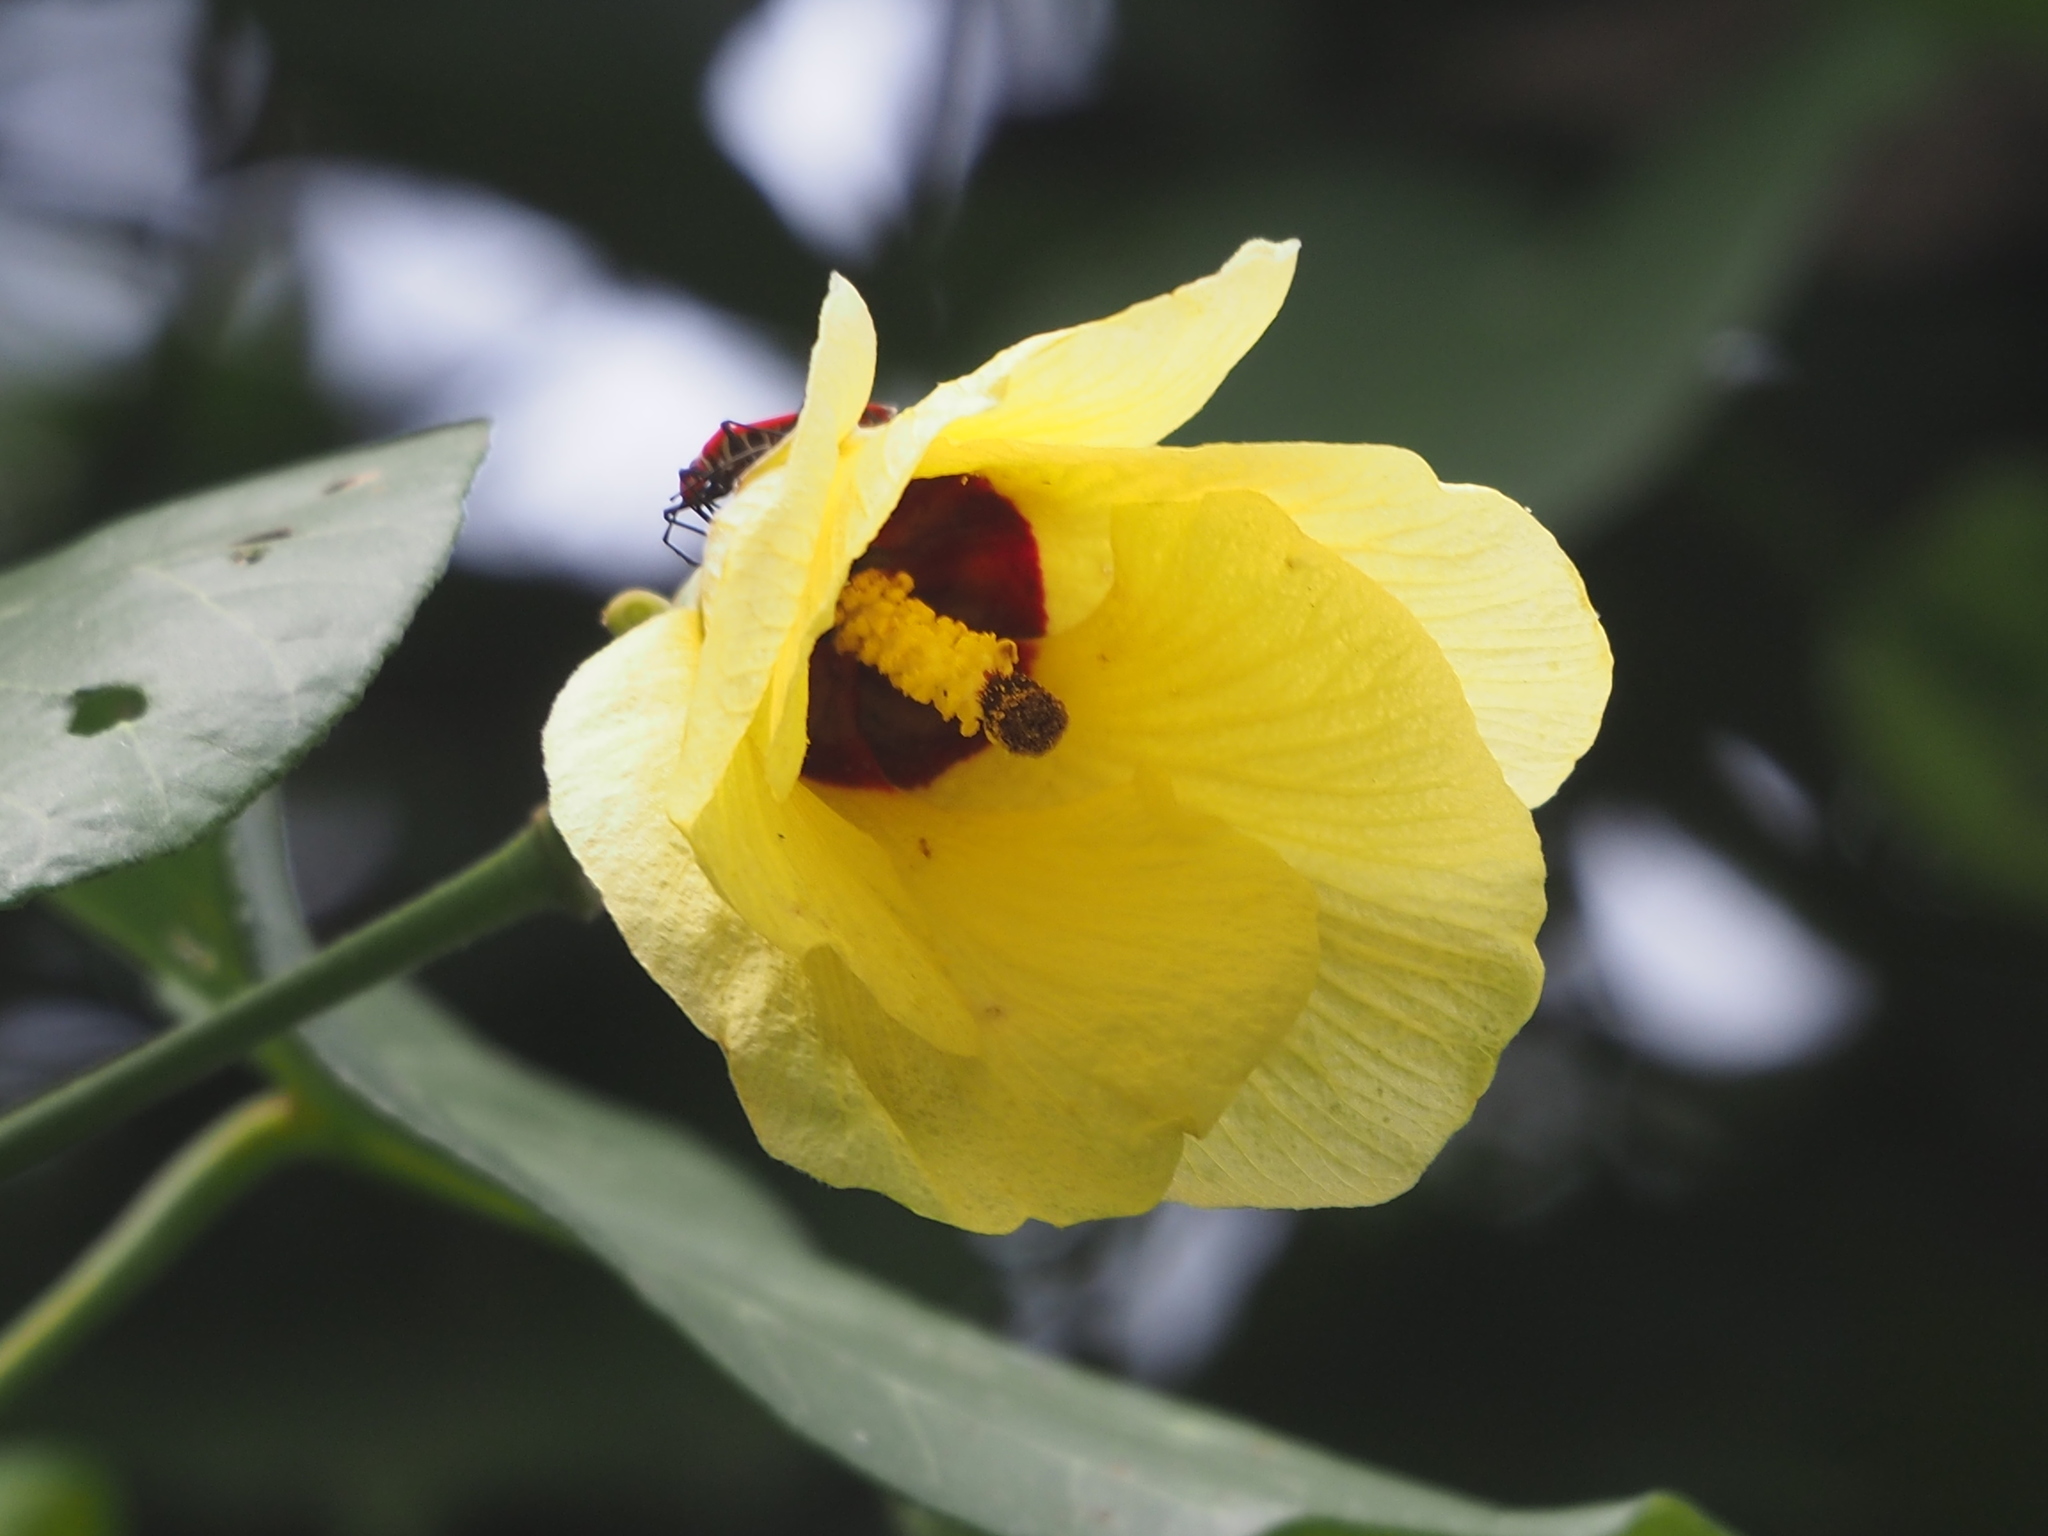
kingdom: Plantae
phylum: Tracheophyta
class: Magnoliopsida
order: Malvales
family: Malvaceae
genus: Talipariti
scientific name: Talipariti tiliaceum
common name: Sea hibiscus
